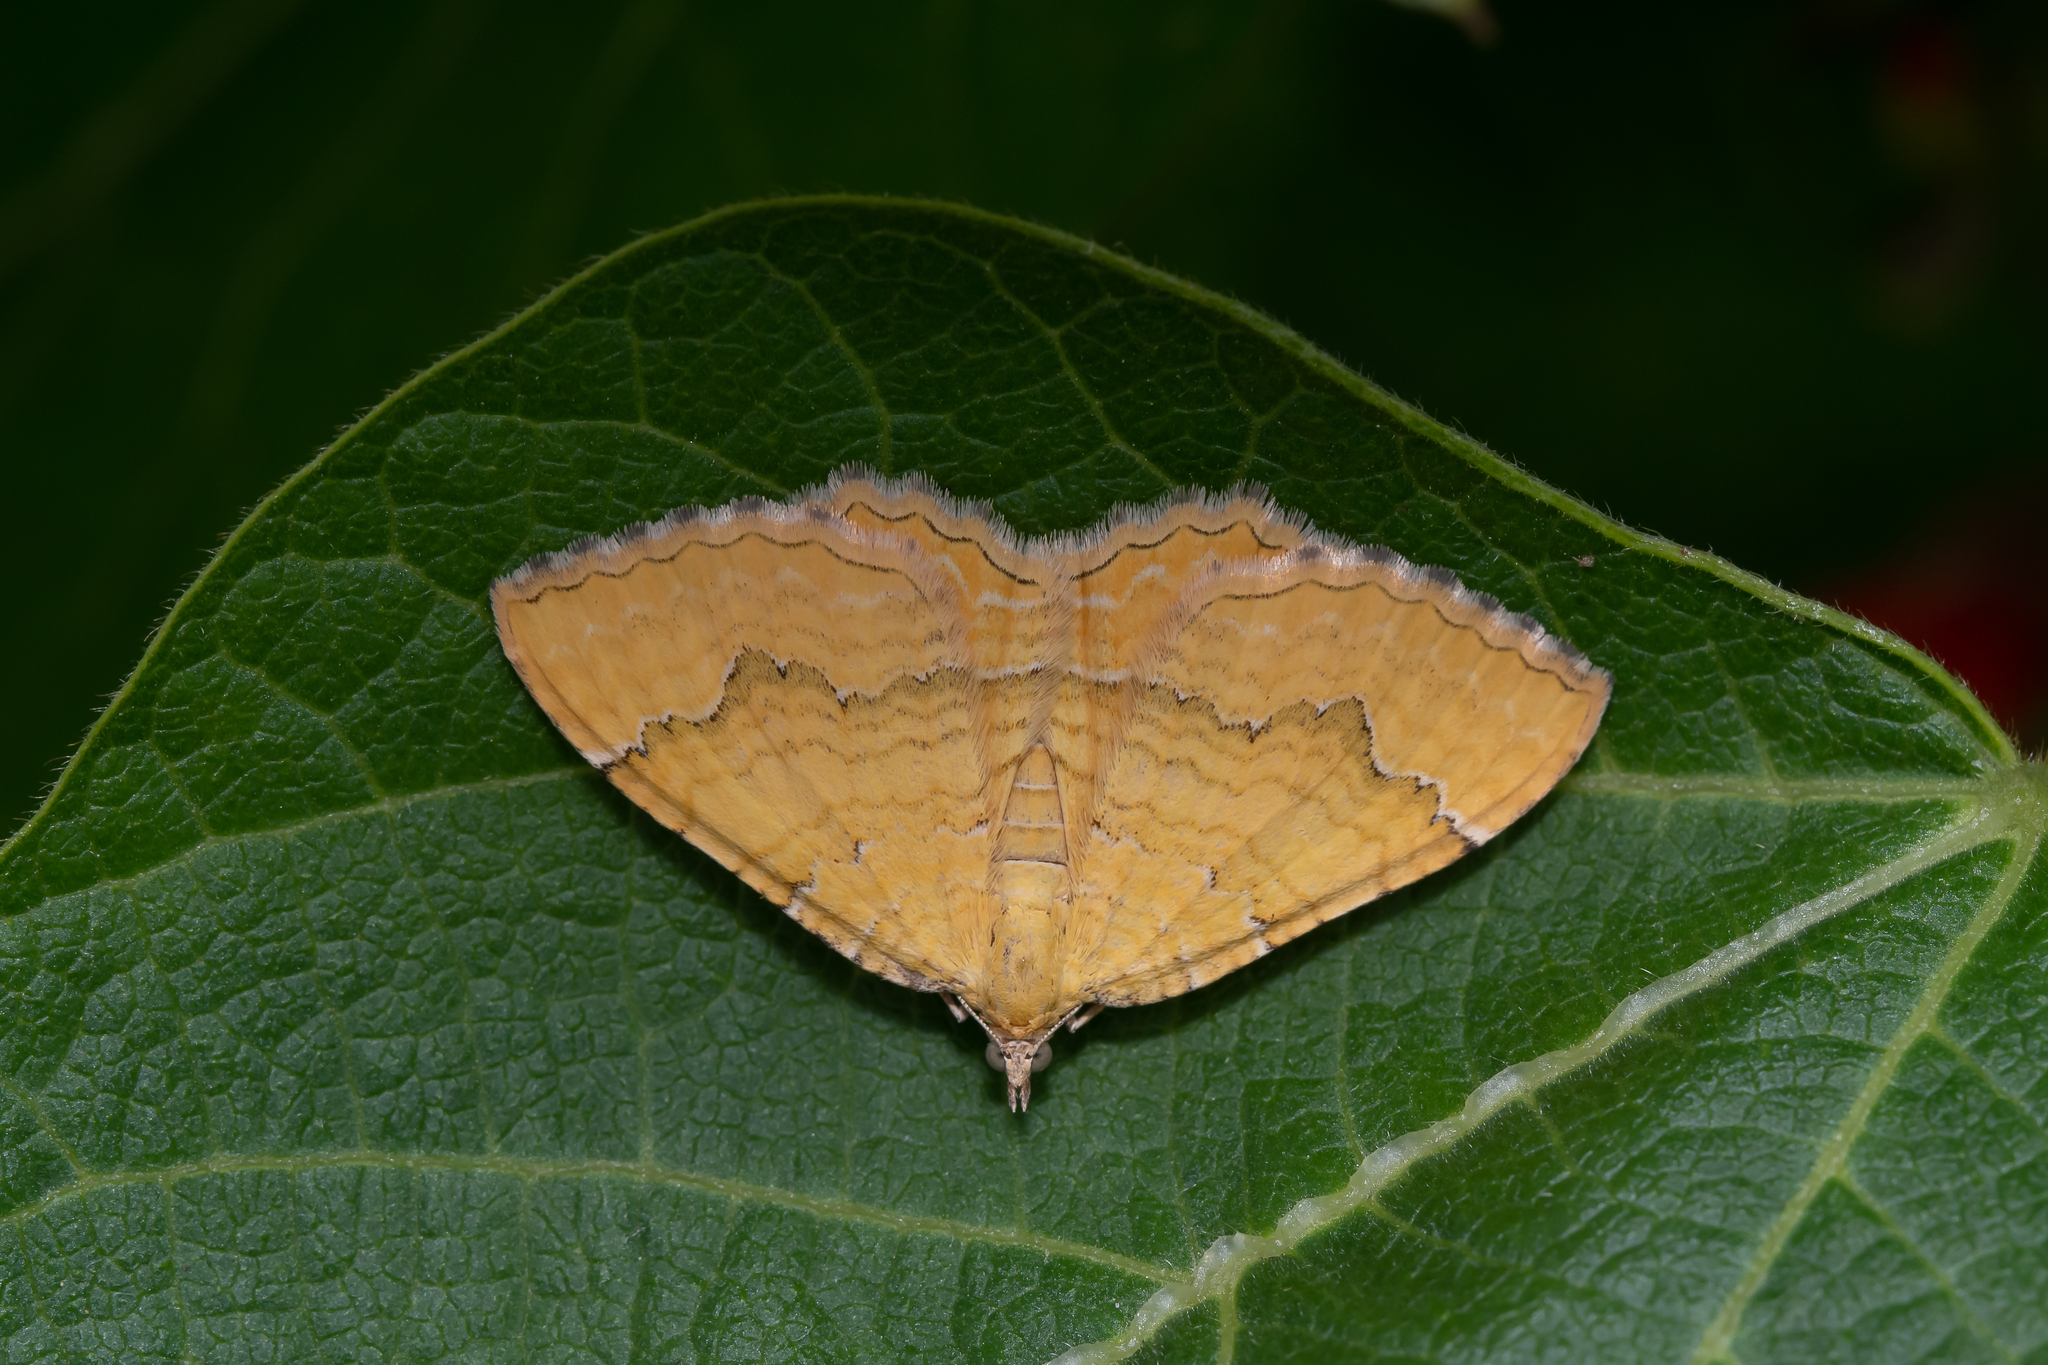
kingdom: Animalia
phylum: Arthropoda
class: Insecta
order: Lepidoptera
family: Geometridae
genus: Camptogramma
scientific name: Camptogramma bilineata
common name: Yellow shell
